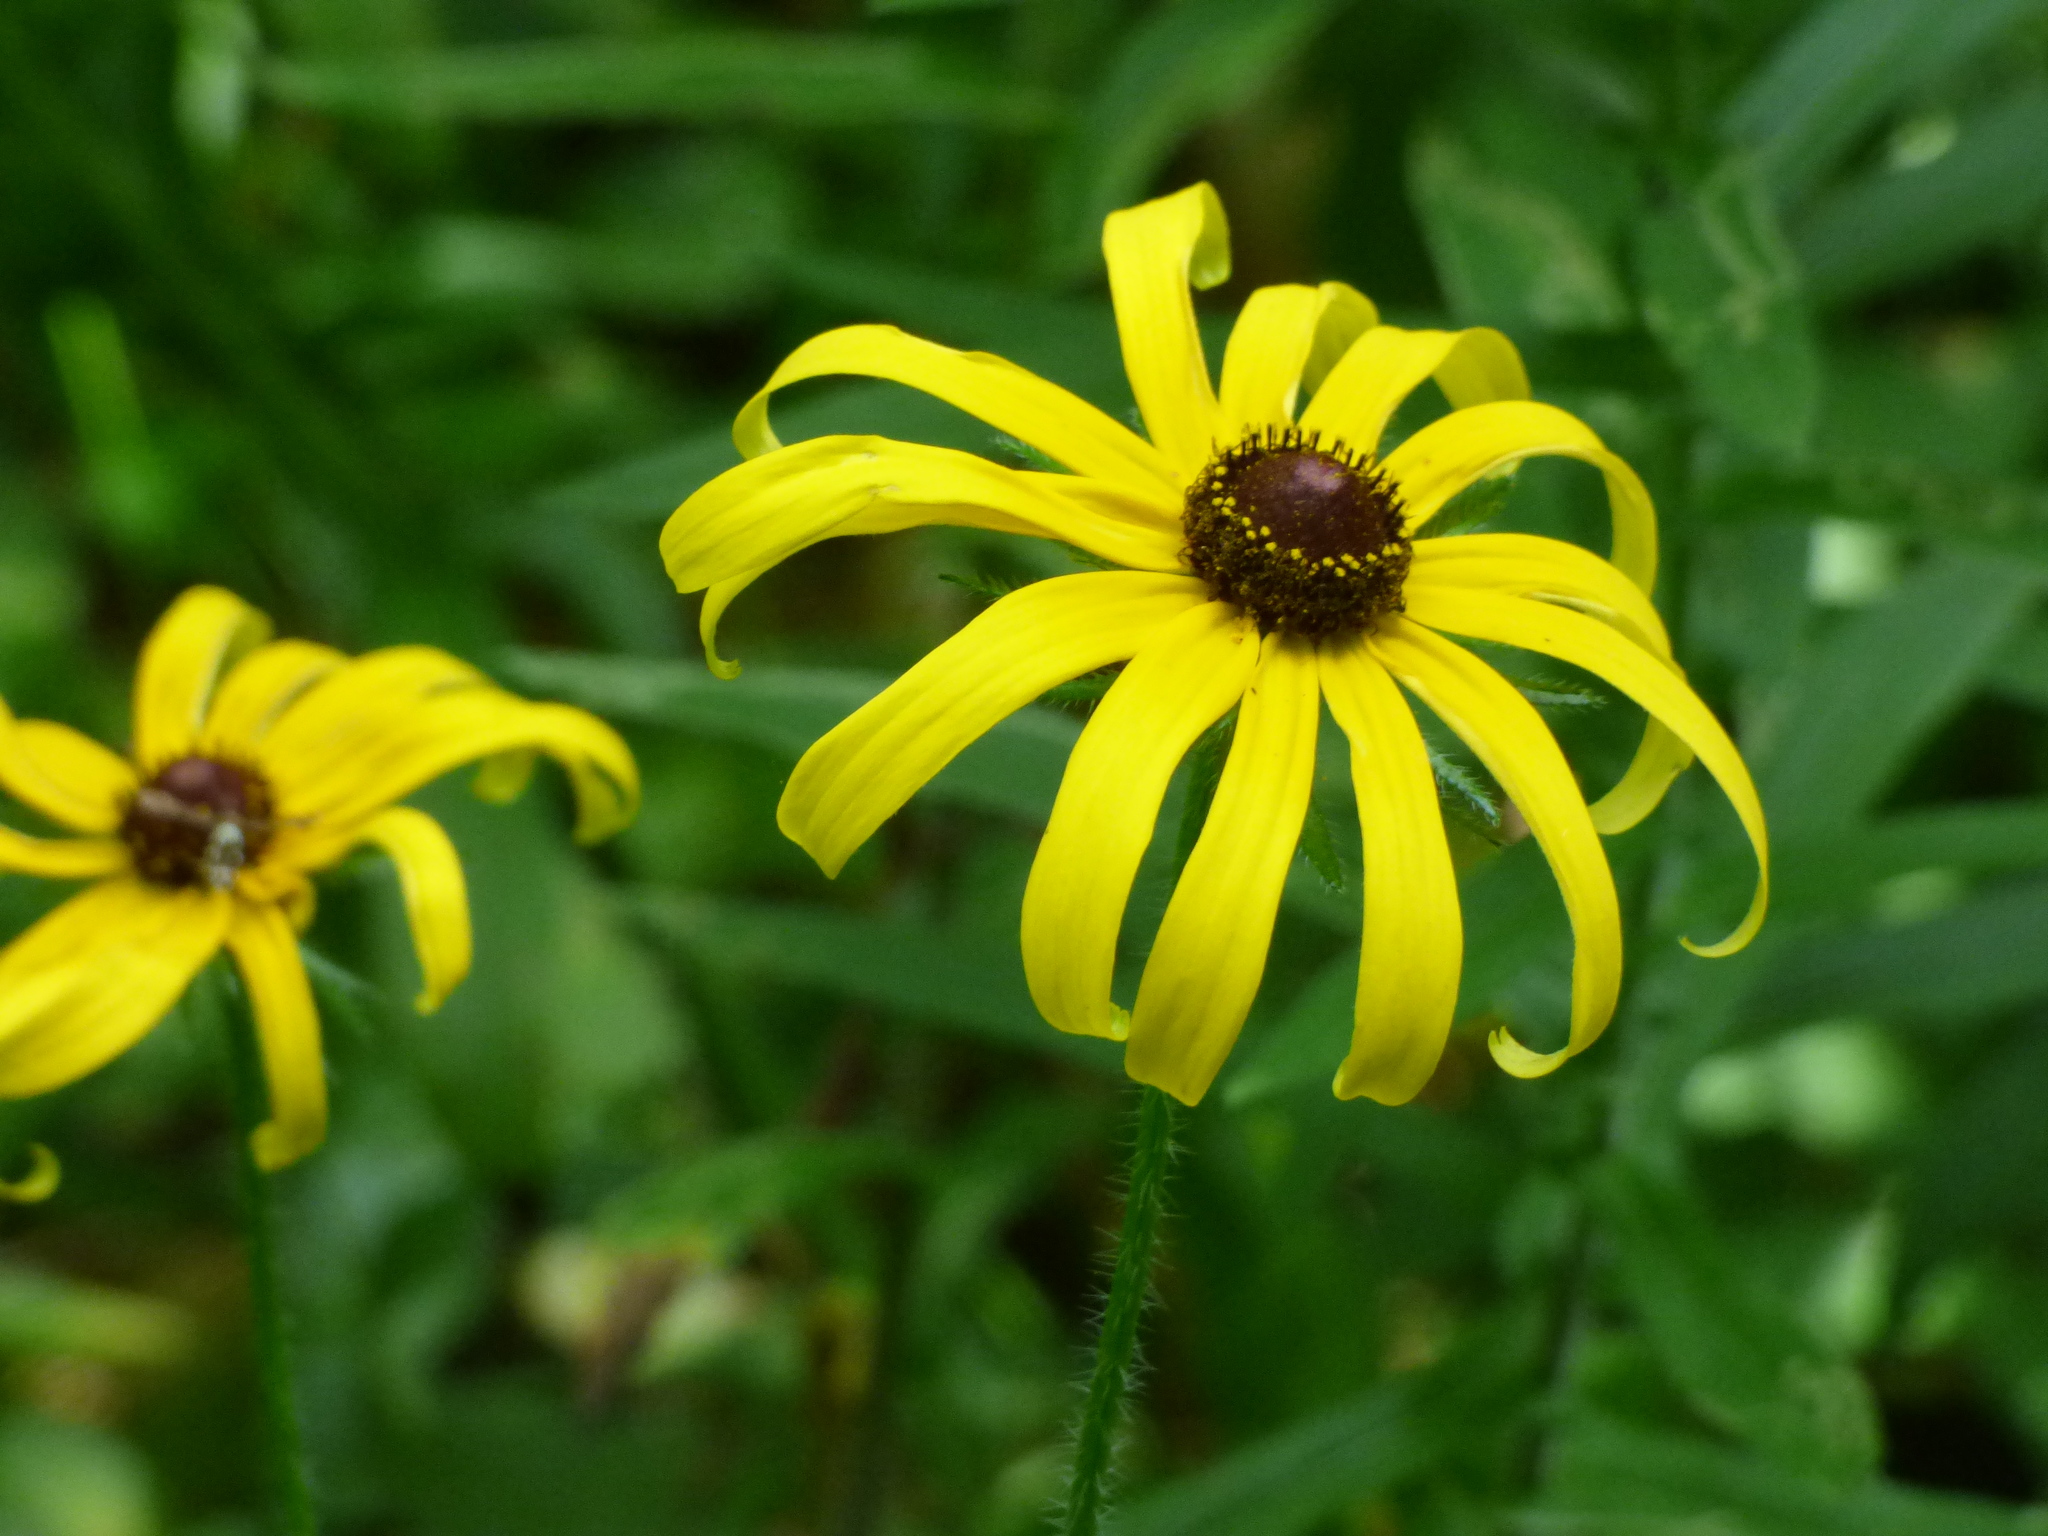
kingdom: Plantae
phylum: Tracheophyta
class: Magnoliopsida
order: Asterales
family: Asteraceae
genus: Rudbeckia
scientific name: Rudbeckia hirta
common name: Black-eyed-susan
